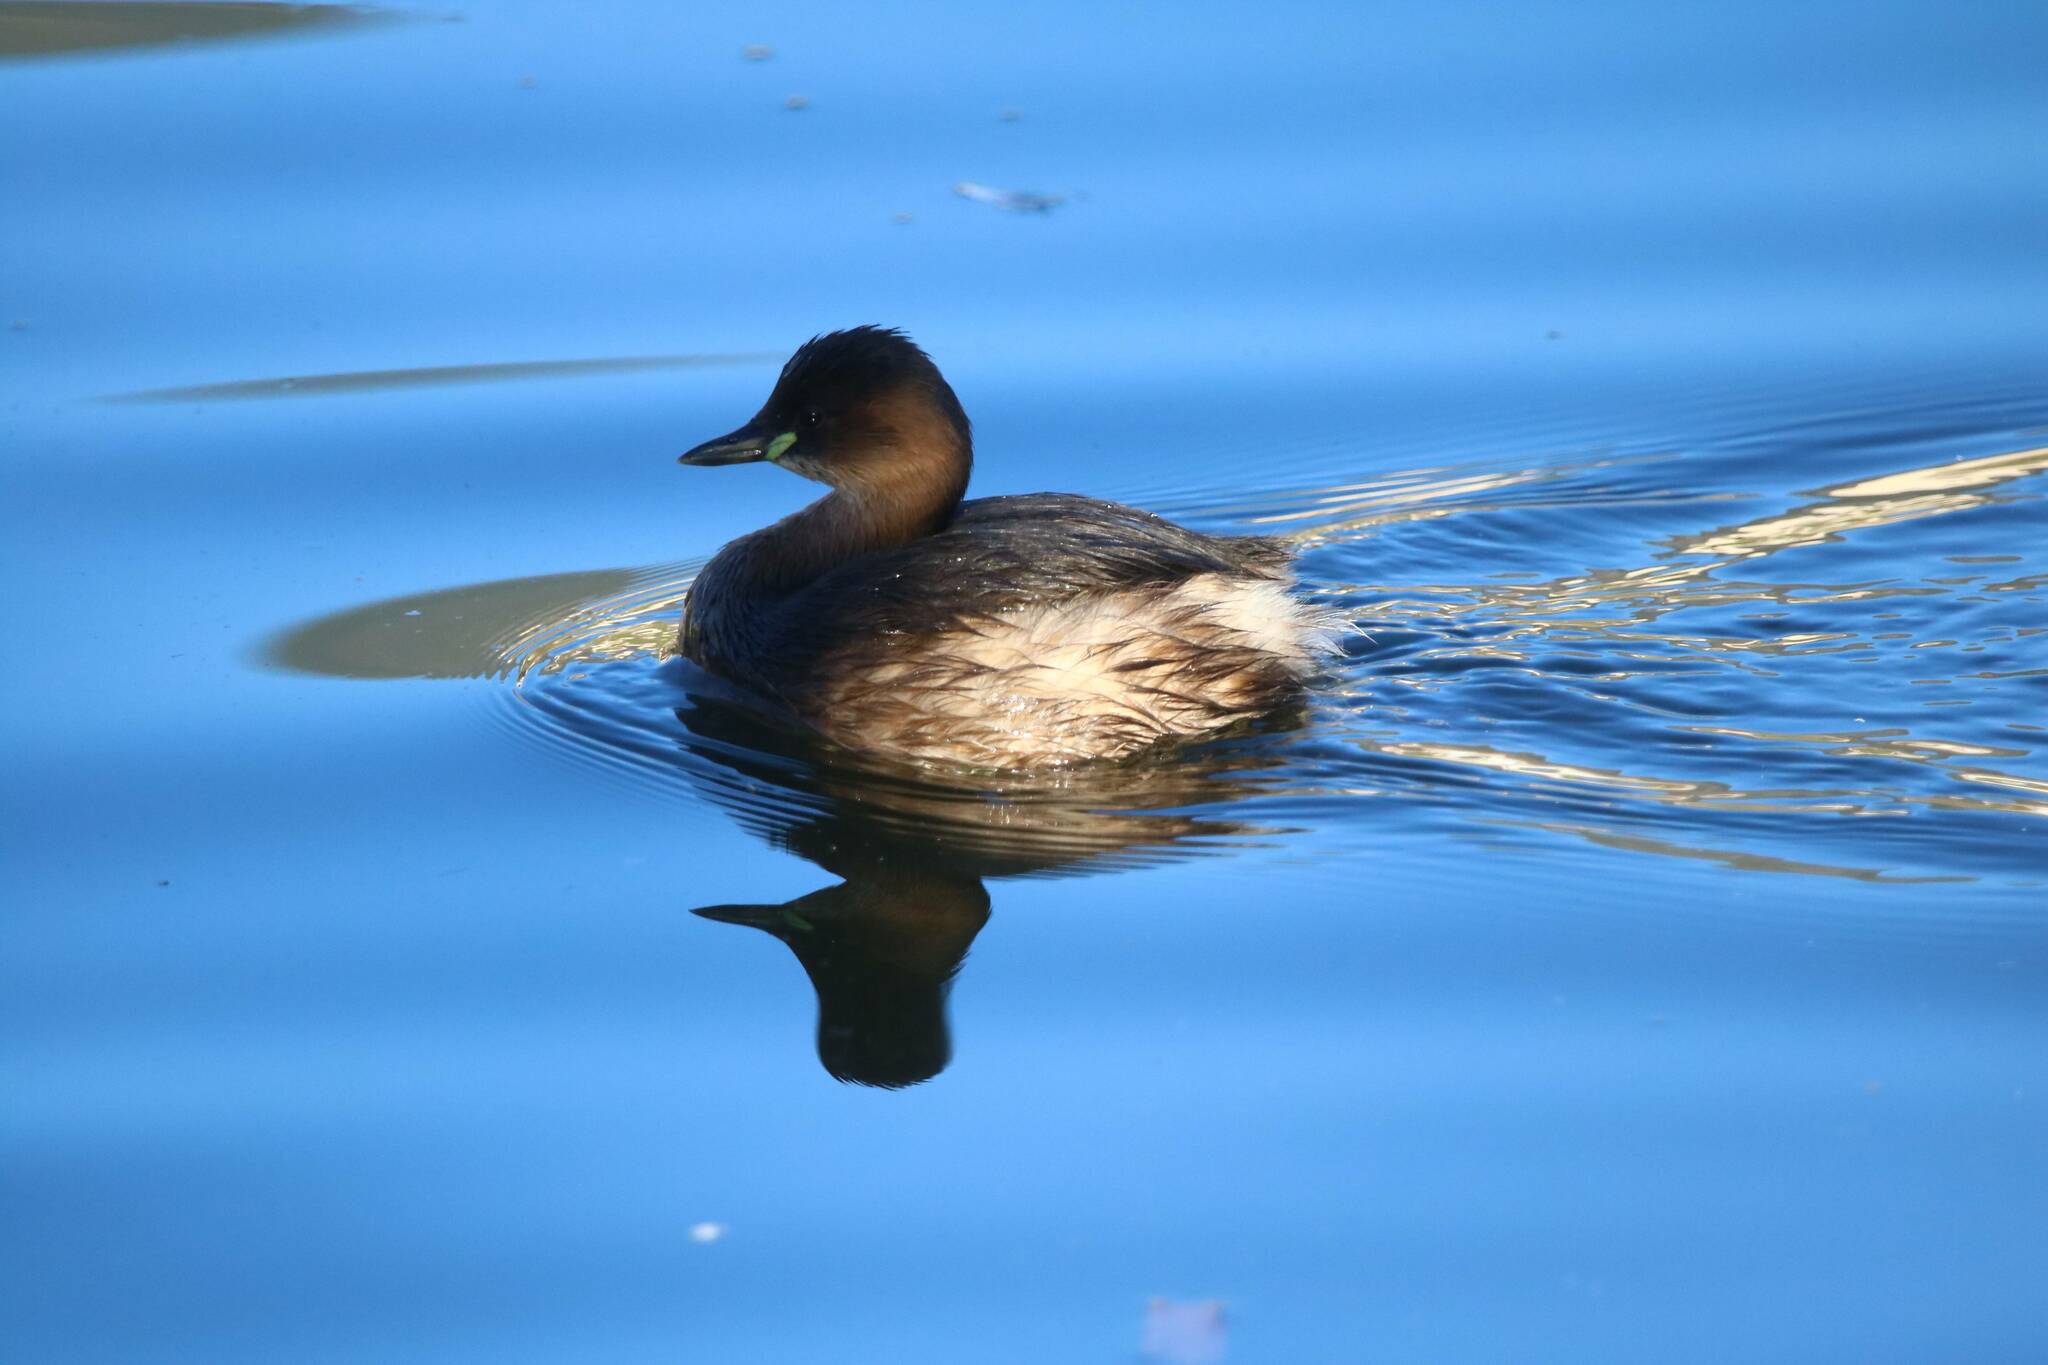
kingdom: Animalia
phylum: Chordata
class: Aves
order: Podicipediformes
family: Podicipedidae
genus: Tachybaptus
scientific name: Tachybaptus ruficollis
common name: Little grebe
